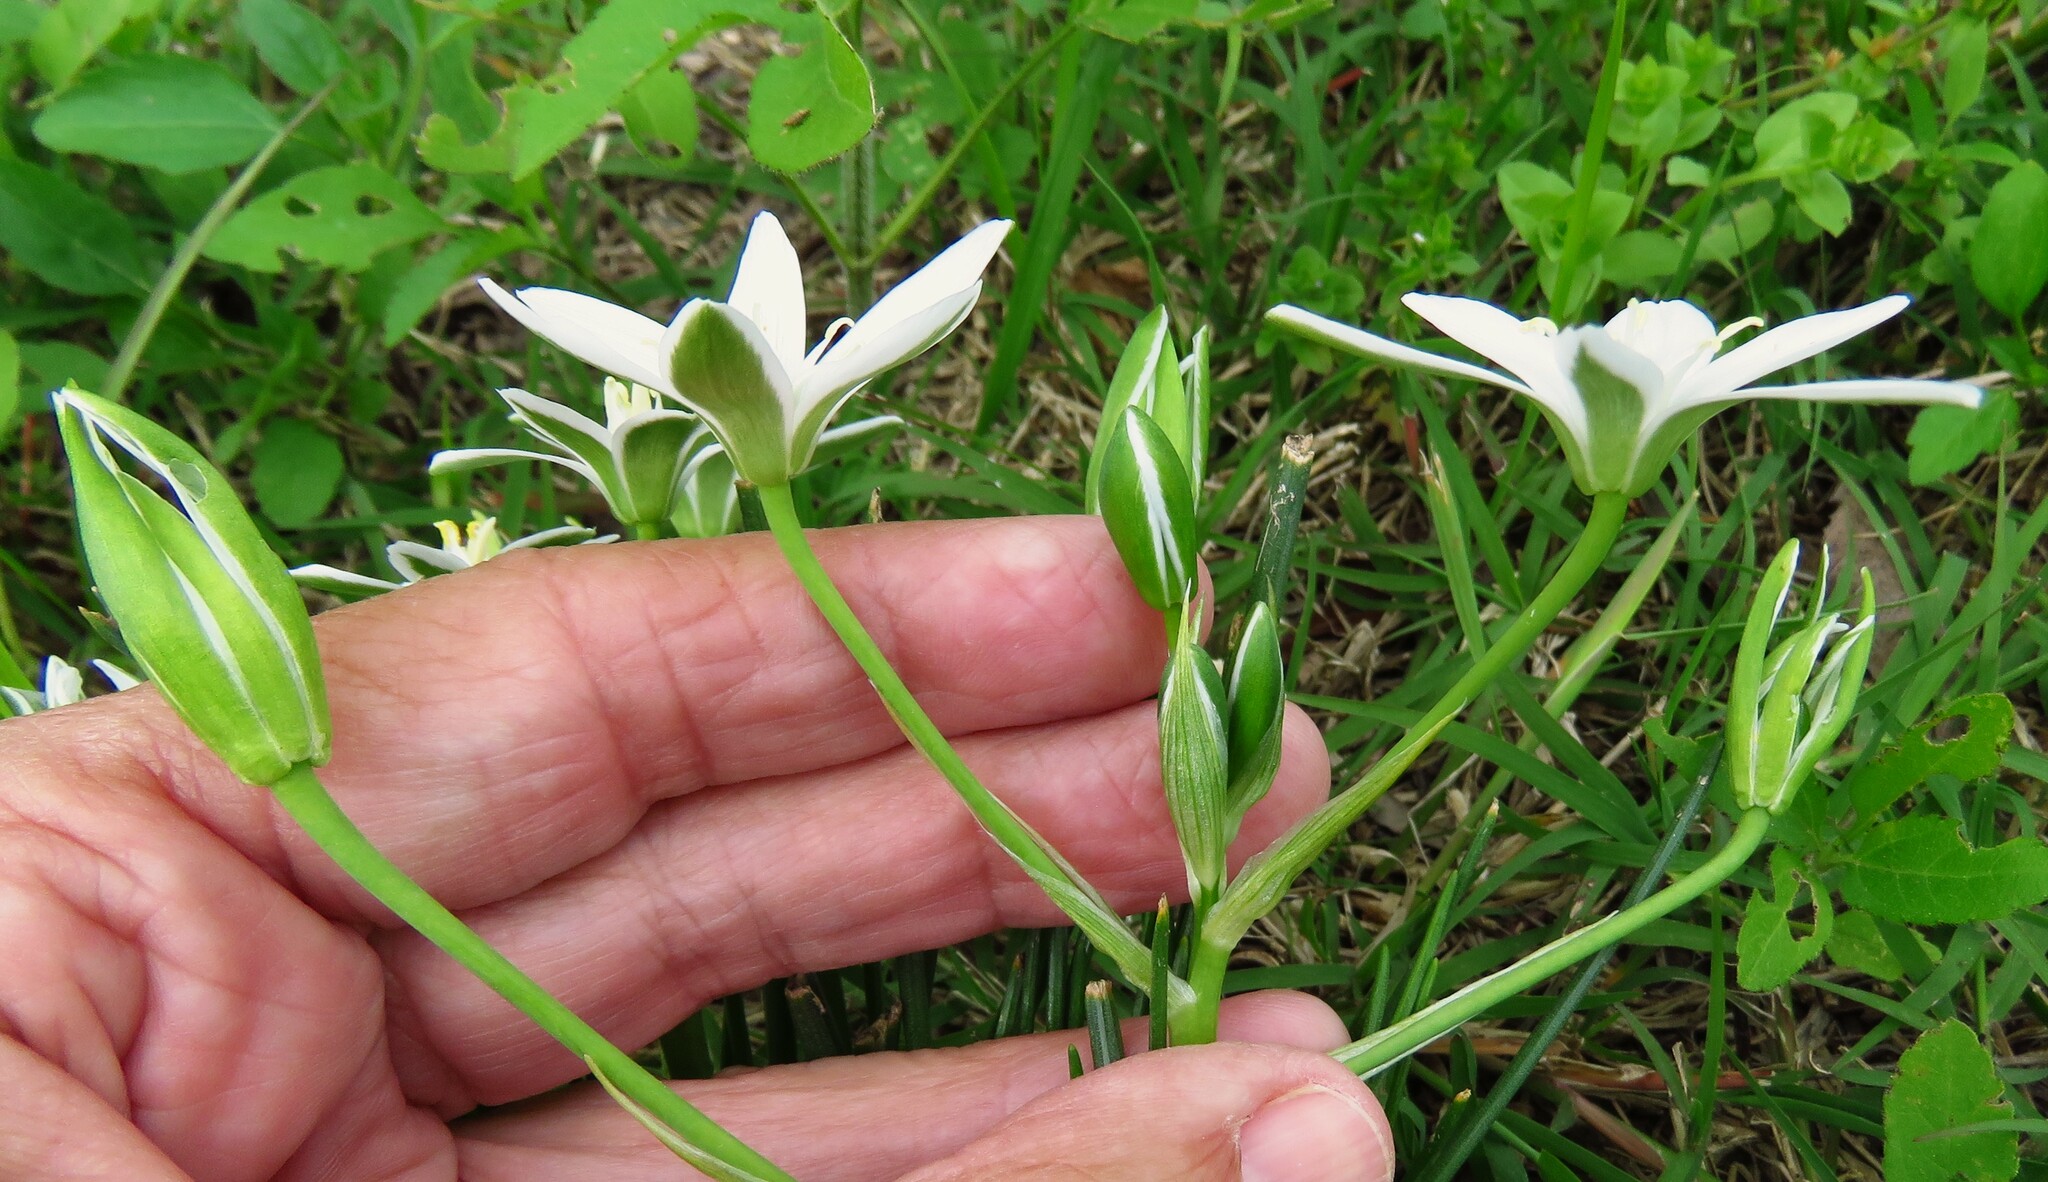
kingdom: Plantae
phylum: Tracheophyta
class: Liliopsida
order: Asparagales
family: Asparagaceae
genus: Ornithogalum
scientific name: Ornithogalum umbellatum
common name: Garden star-of-bethlehem
